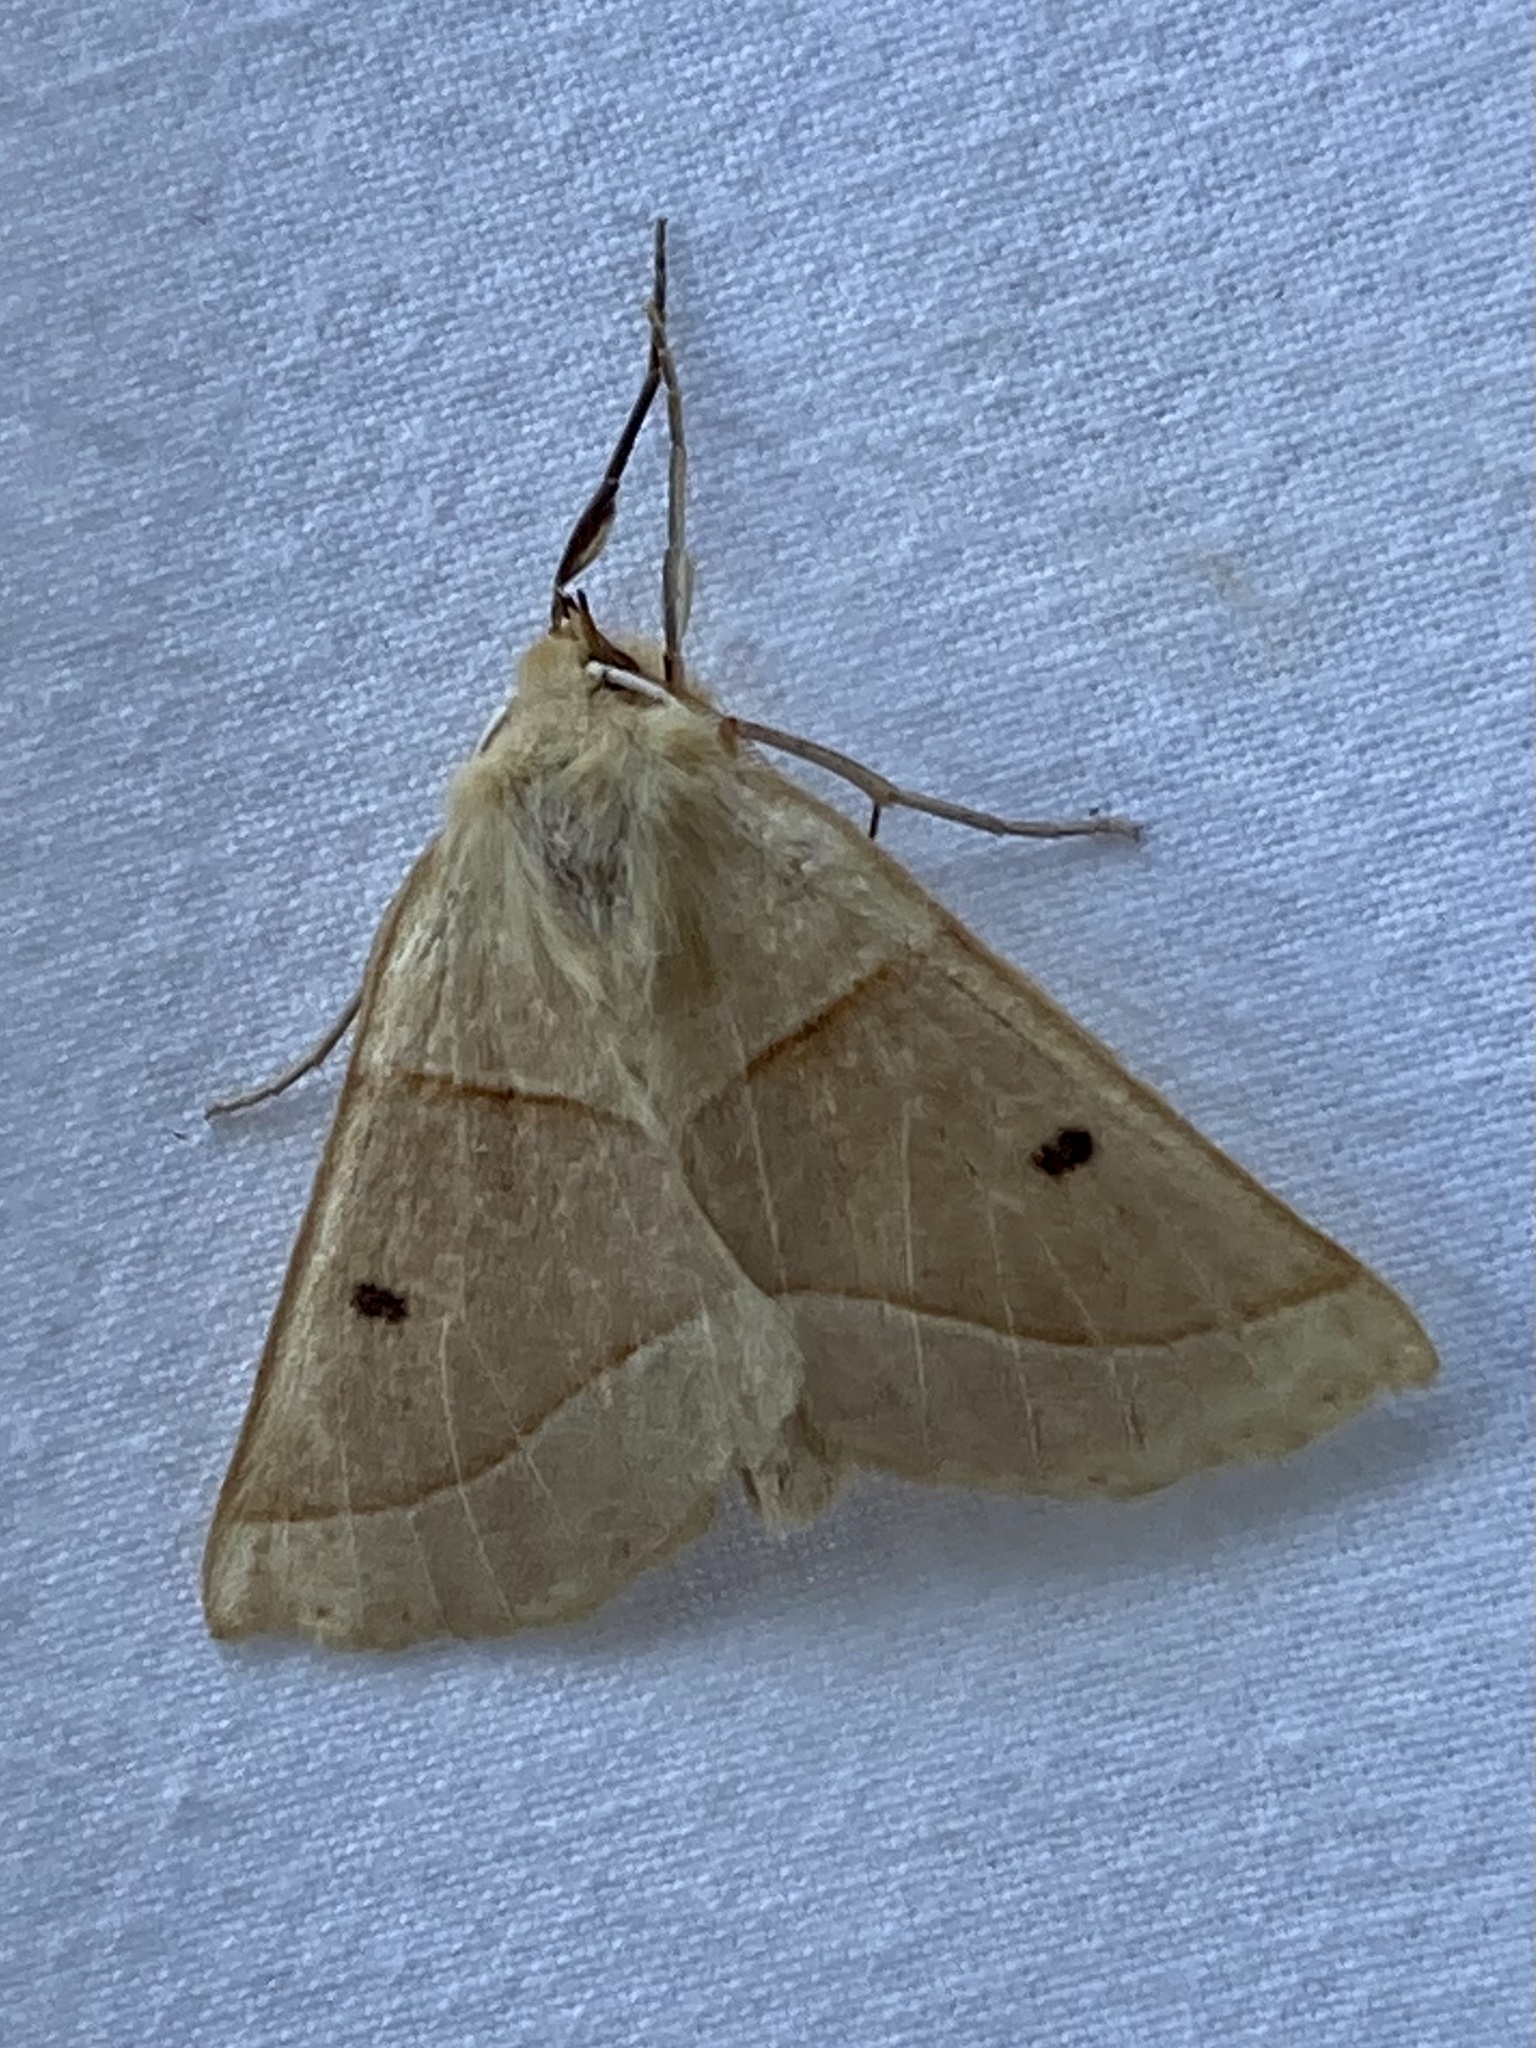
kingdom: Animalia
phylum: Arthropoda
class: Insecta
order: Lepidoptera
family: Geometridae
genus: Crocallis
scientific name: Crocallis elinguaria
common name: Scalloped oak
